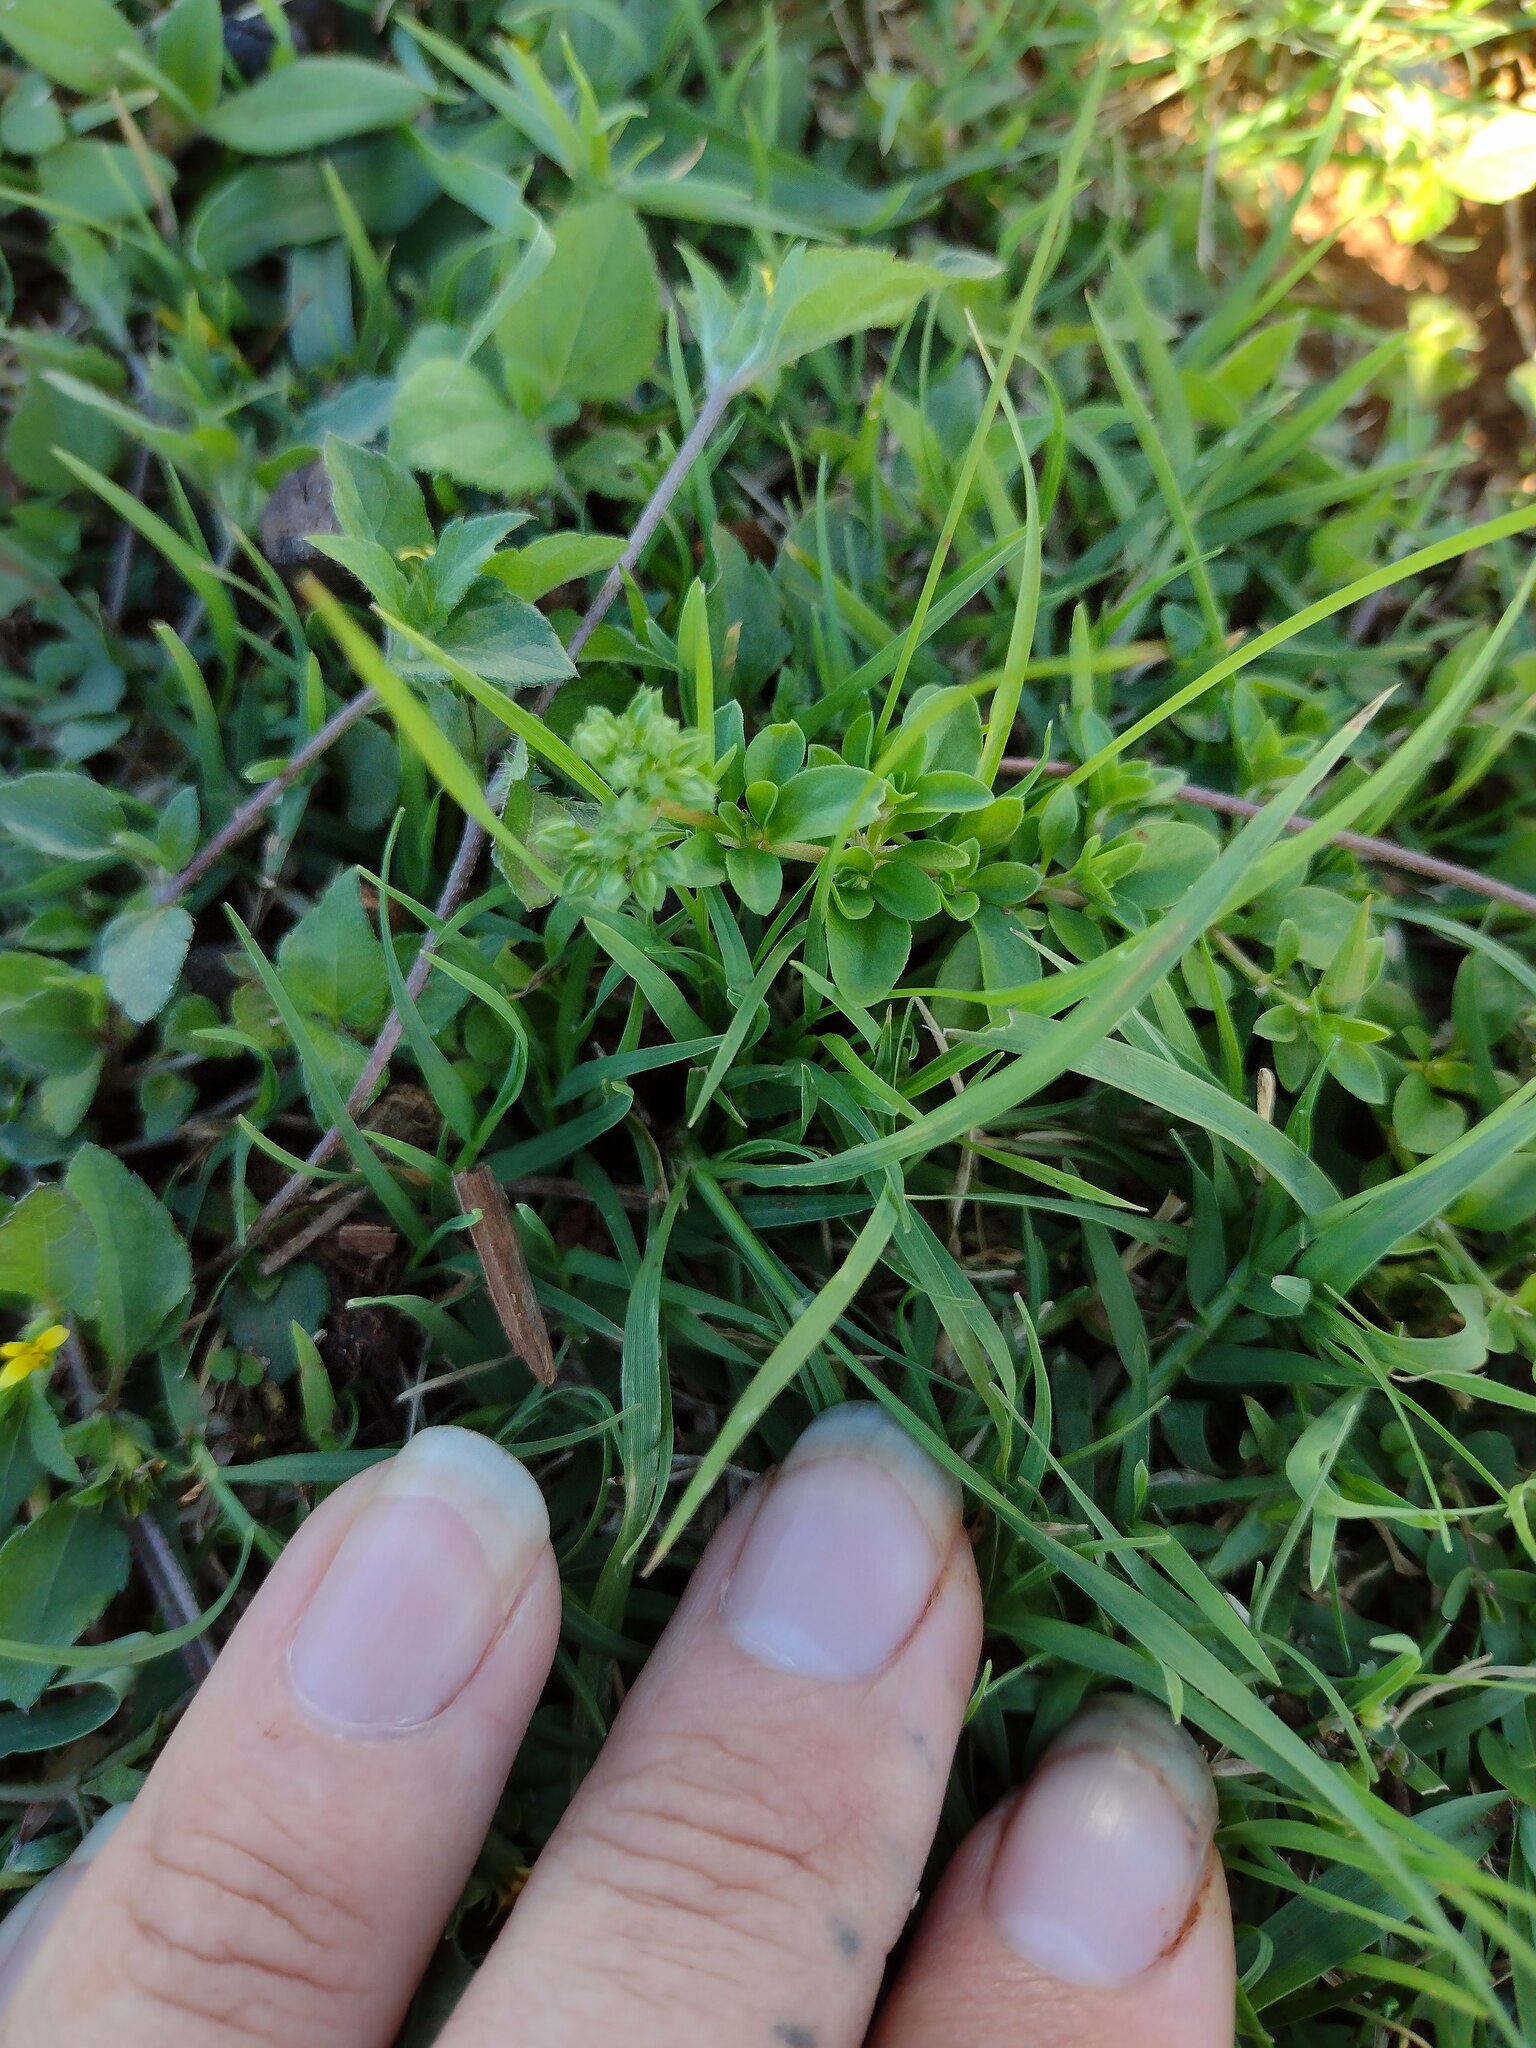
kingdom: Plantae
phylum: Tracheophyta
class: Magnoliopsida
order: Caryophyllales
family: Caryophyllaceae
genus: Polycarpon
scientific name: Polycarpon tetraphyllum
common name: Four-leaved all-seed
